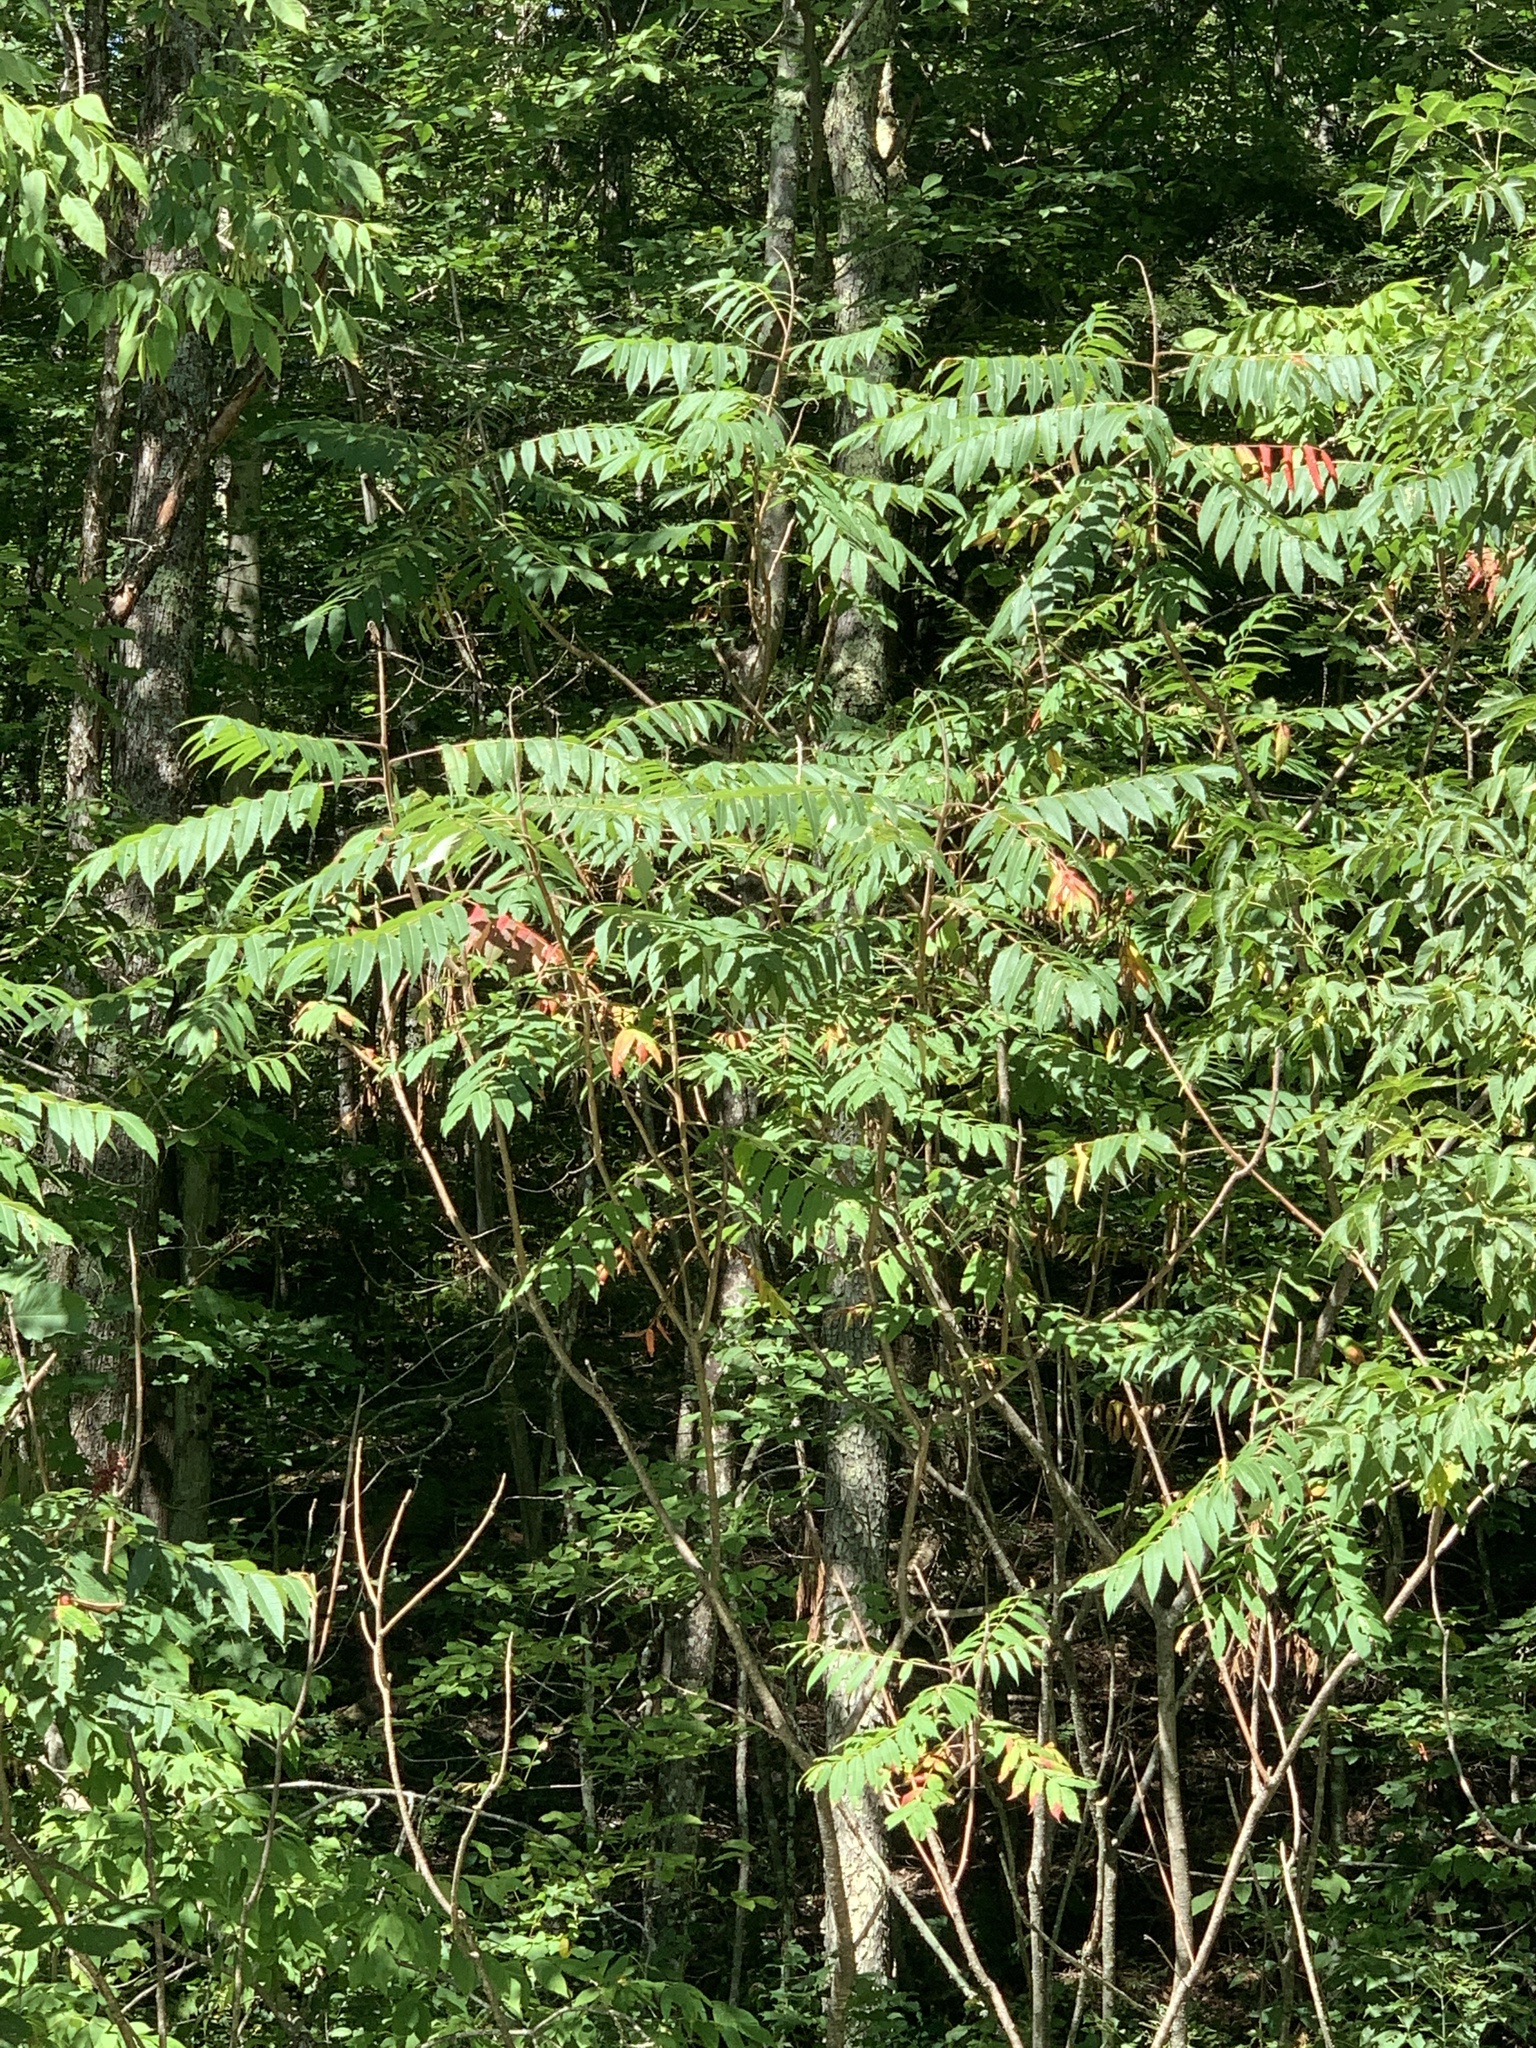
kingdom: Plantae
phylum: Tracheophyta
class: Magnoliopsida
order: Sapindales
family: Anacardiaceae
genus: Rhus
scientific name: Rhus typhina
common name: Staghorn sumac
